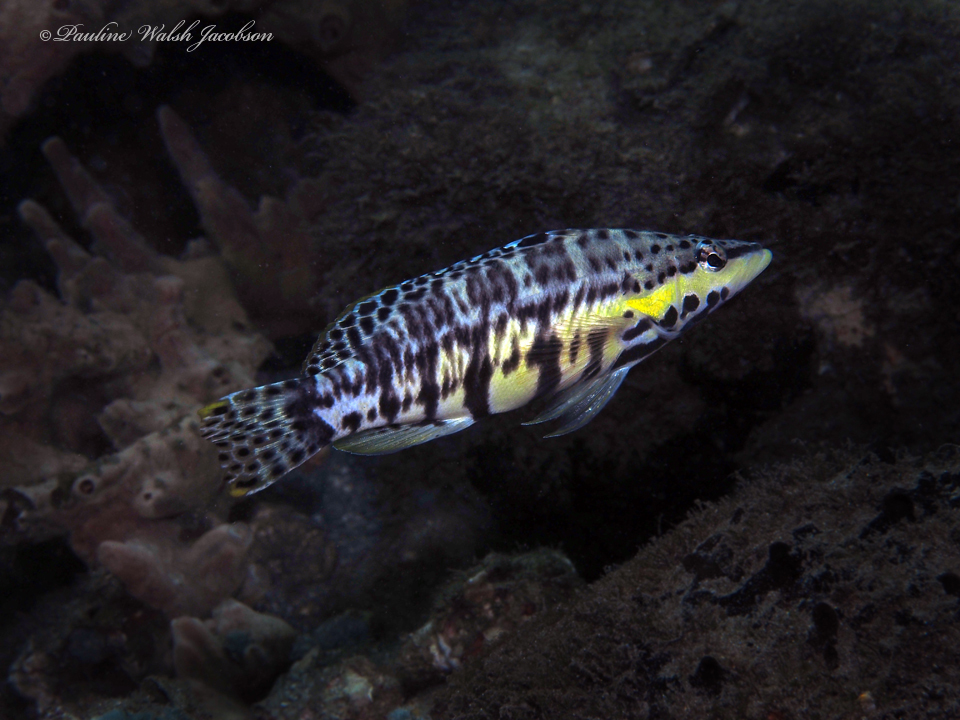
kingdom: Animalia
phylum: Chordata
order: Perciformes
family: Serranidae
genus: Serranus
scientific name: Serranus tigrinus
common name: Harlequin bass
